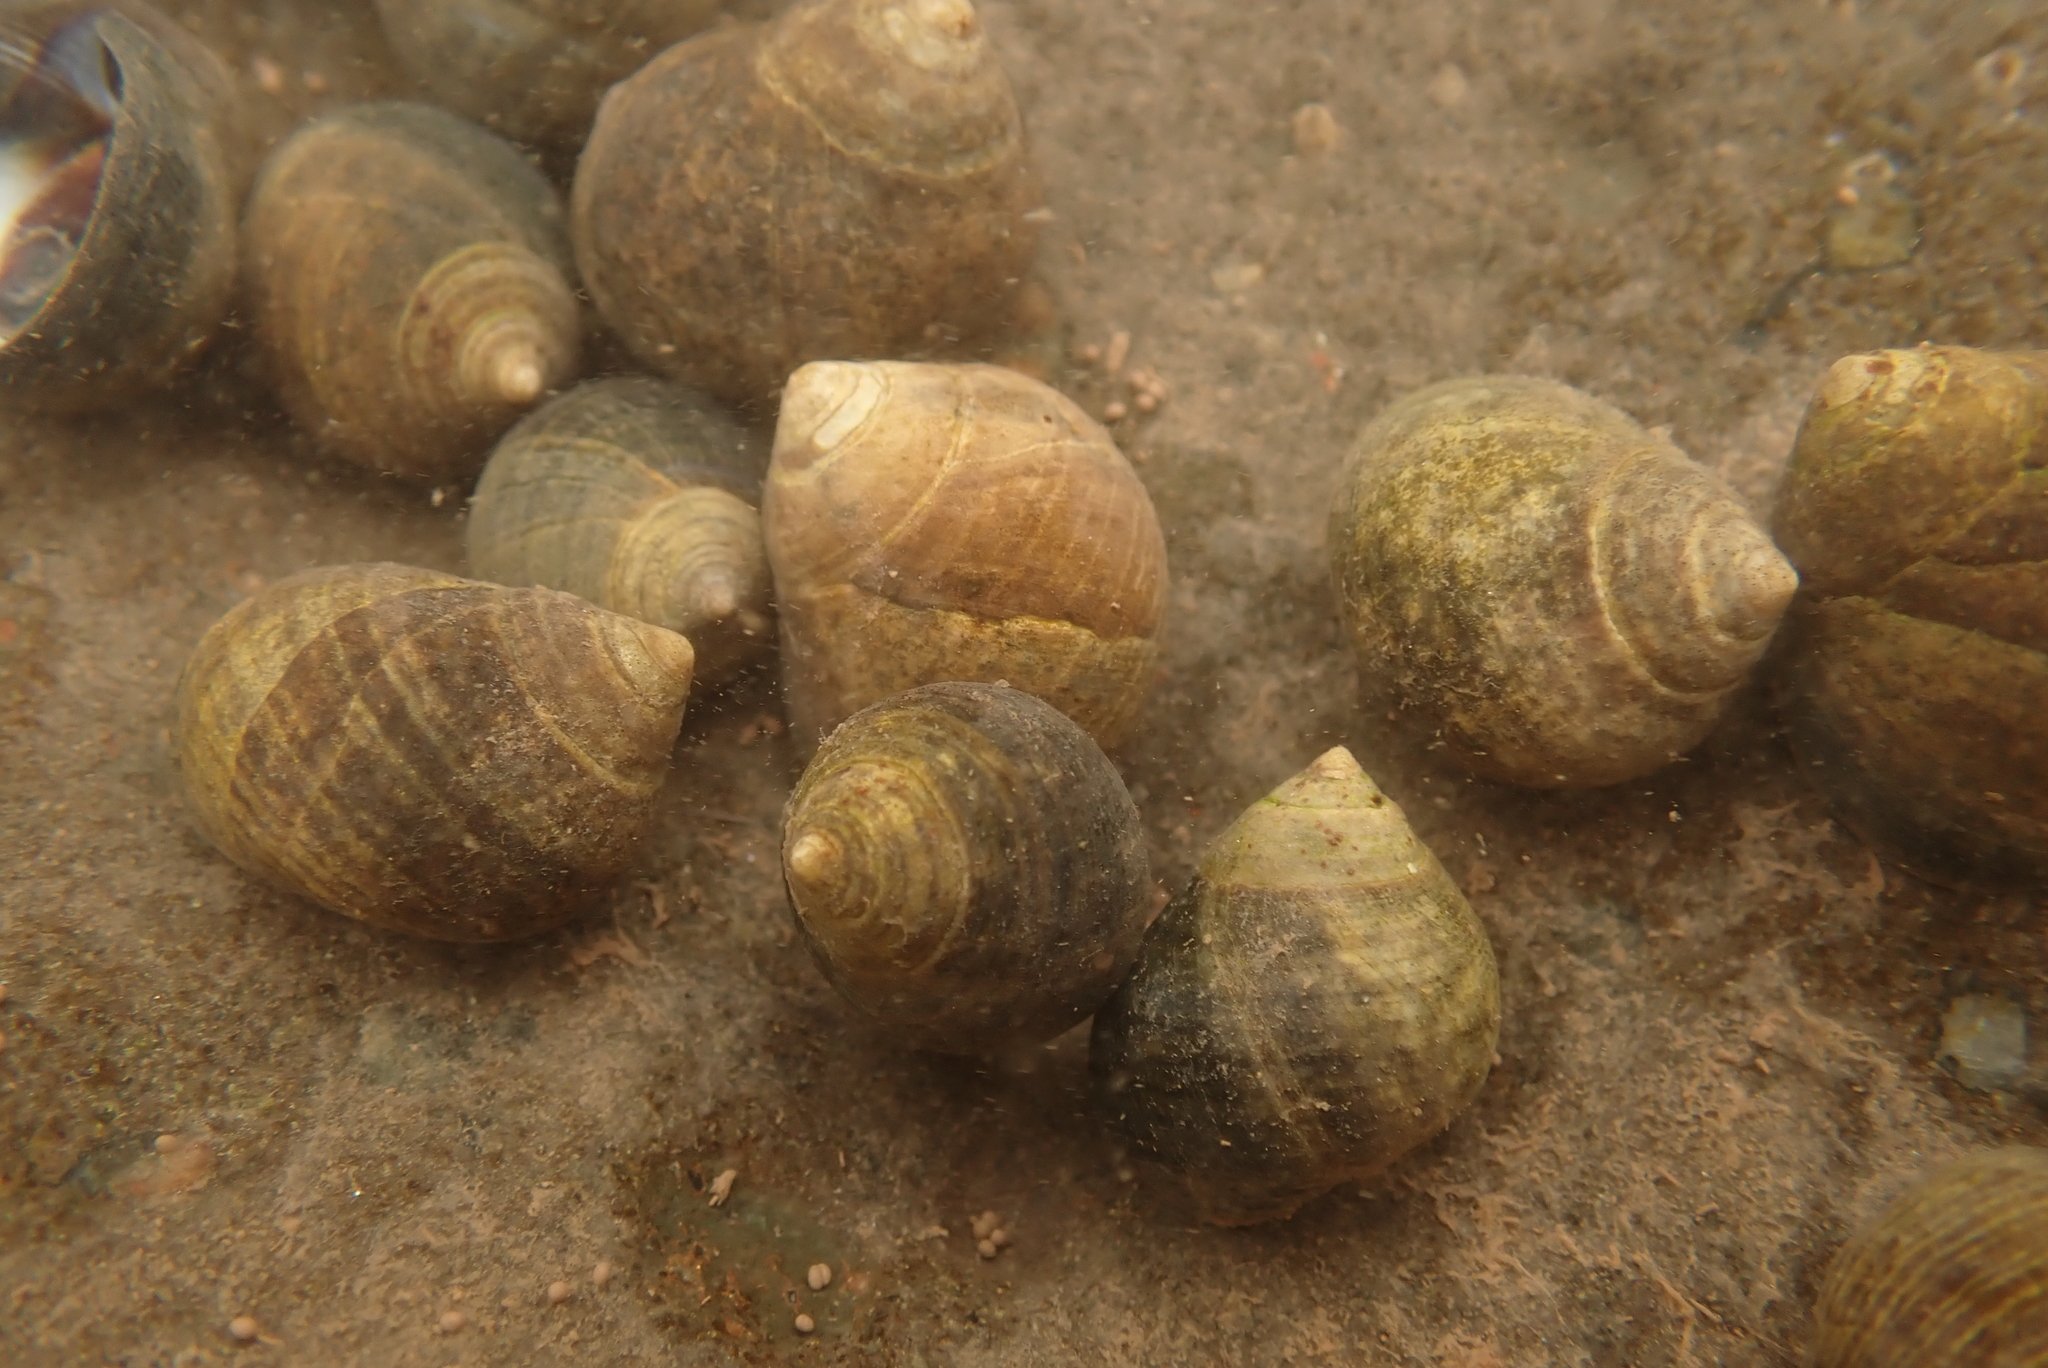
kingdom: Animalia
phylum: Mollusca
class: Gastropoda
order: Littorinimorpha
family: Littorinidae
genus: Littorina
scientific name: Littorina littorea
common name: Common periwinkle
